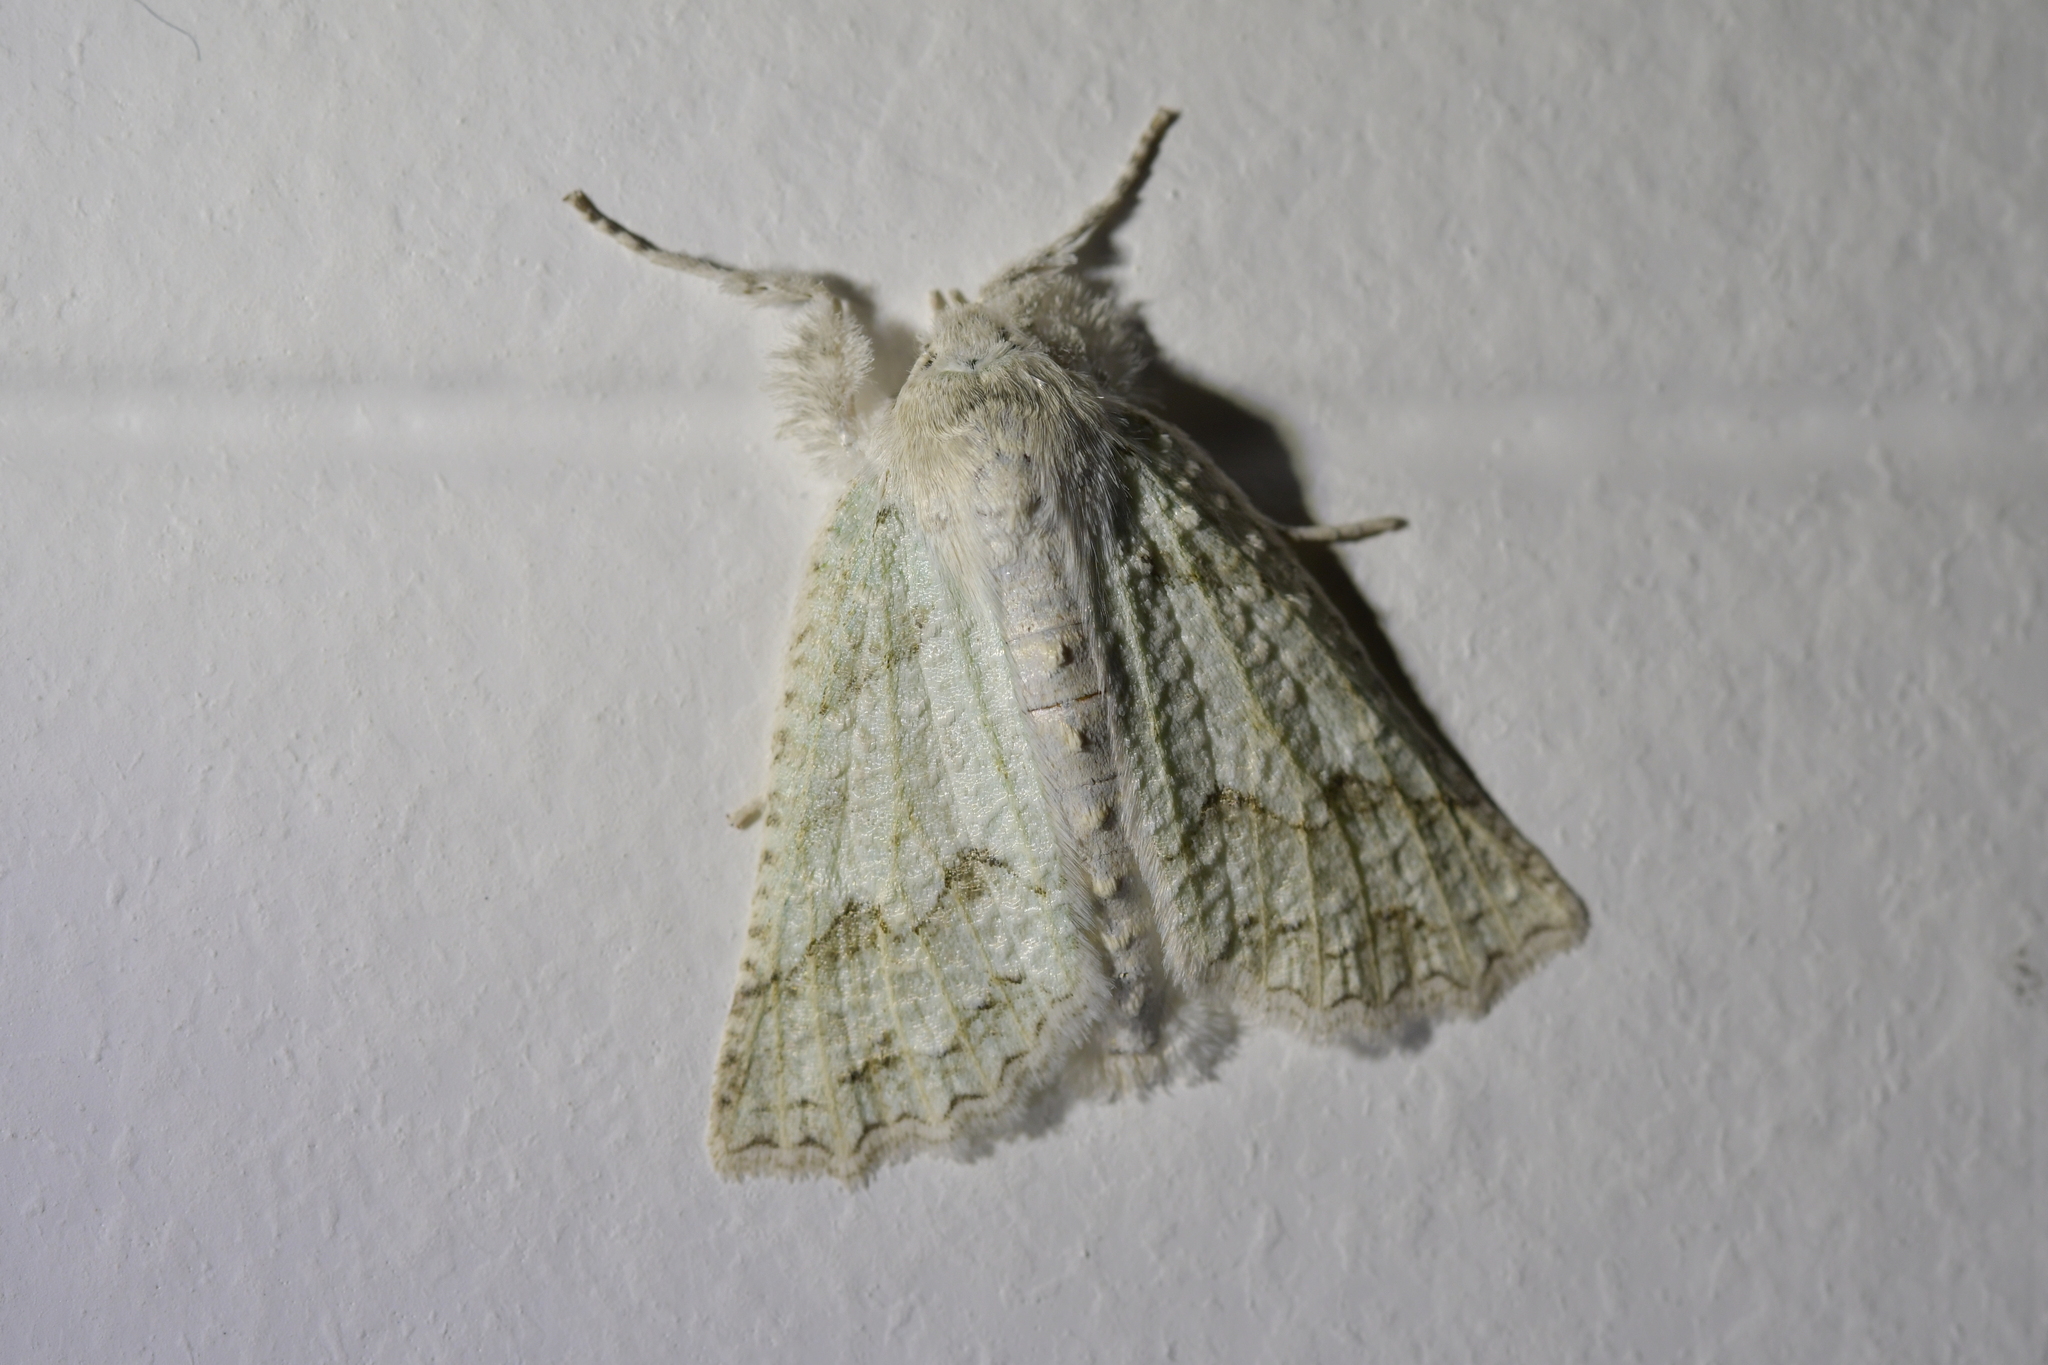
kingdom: Animalia
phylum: Arthropoda
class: Insecta
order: Lepidoptera
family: Geometridae
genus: Declana
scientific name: Declana niveata
